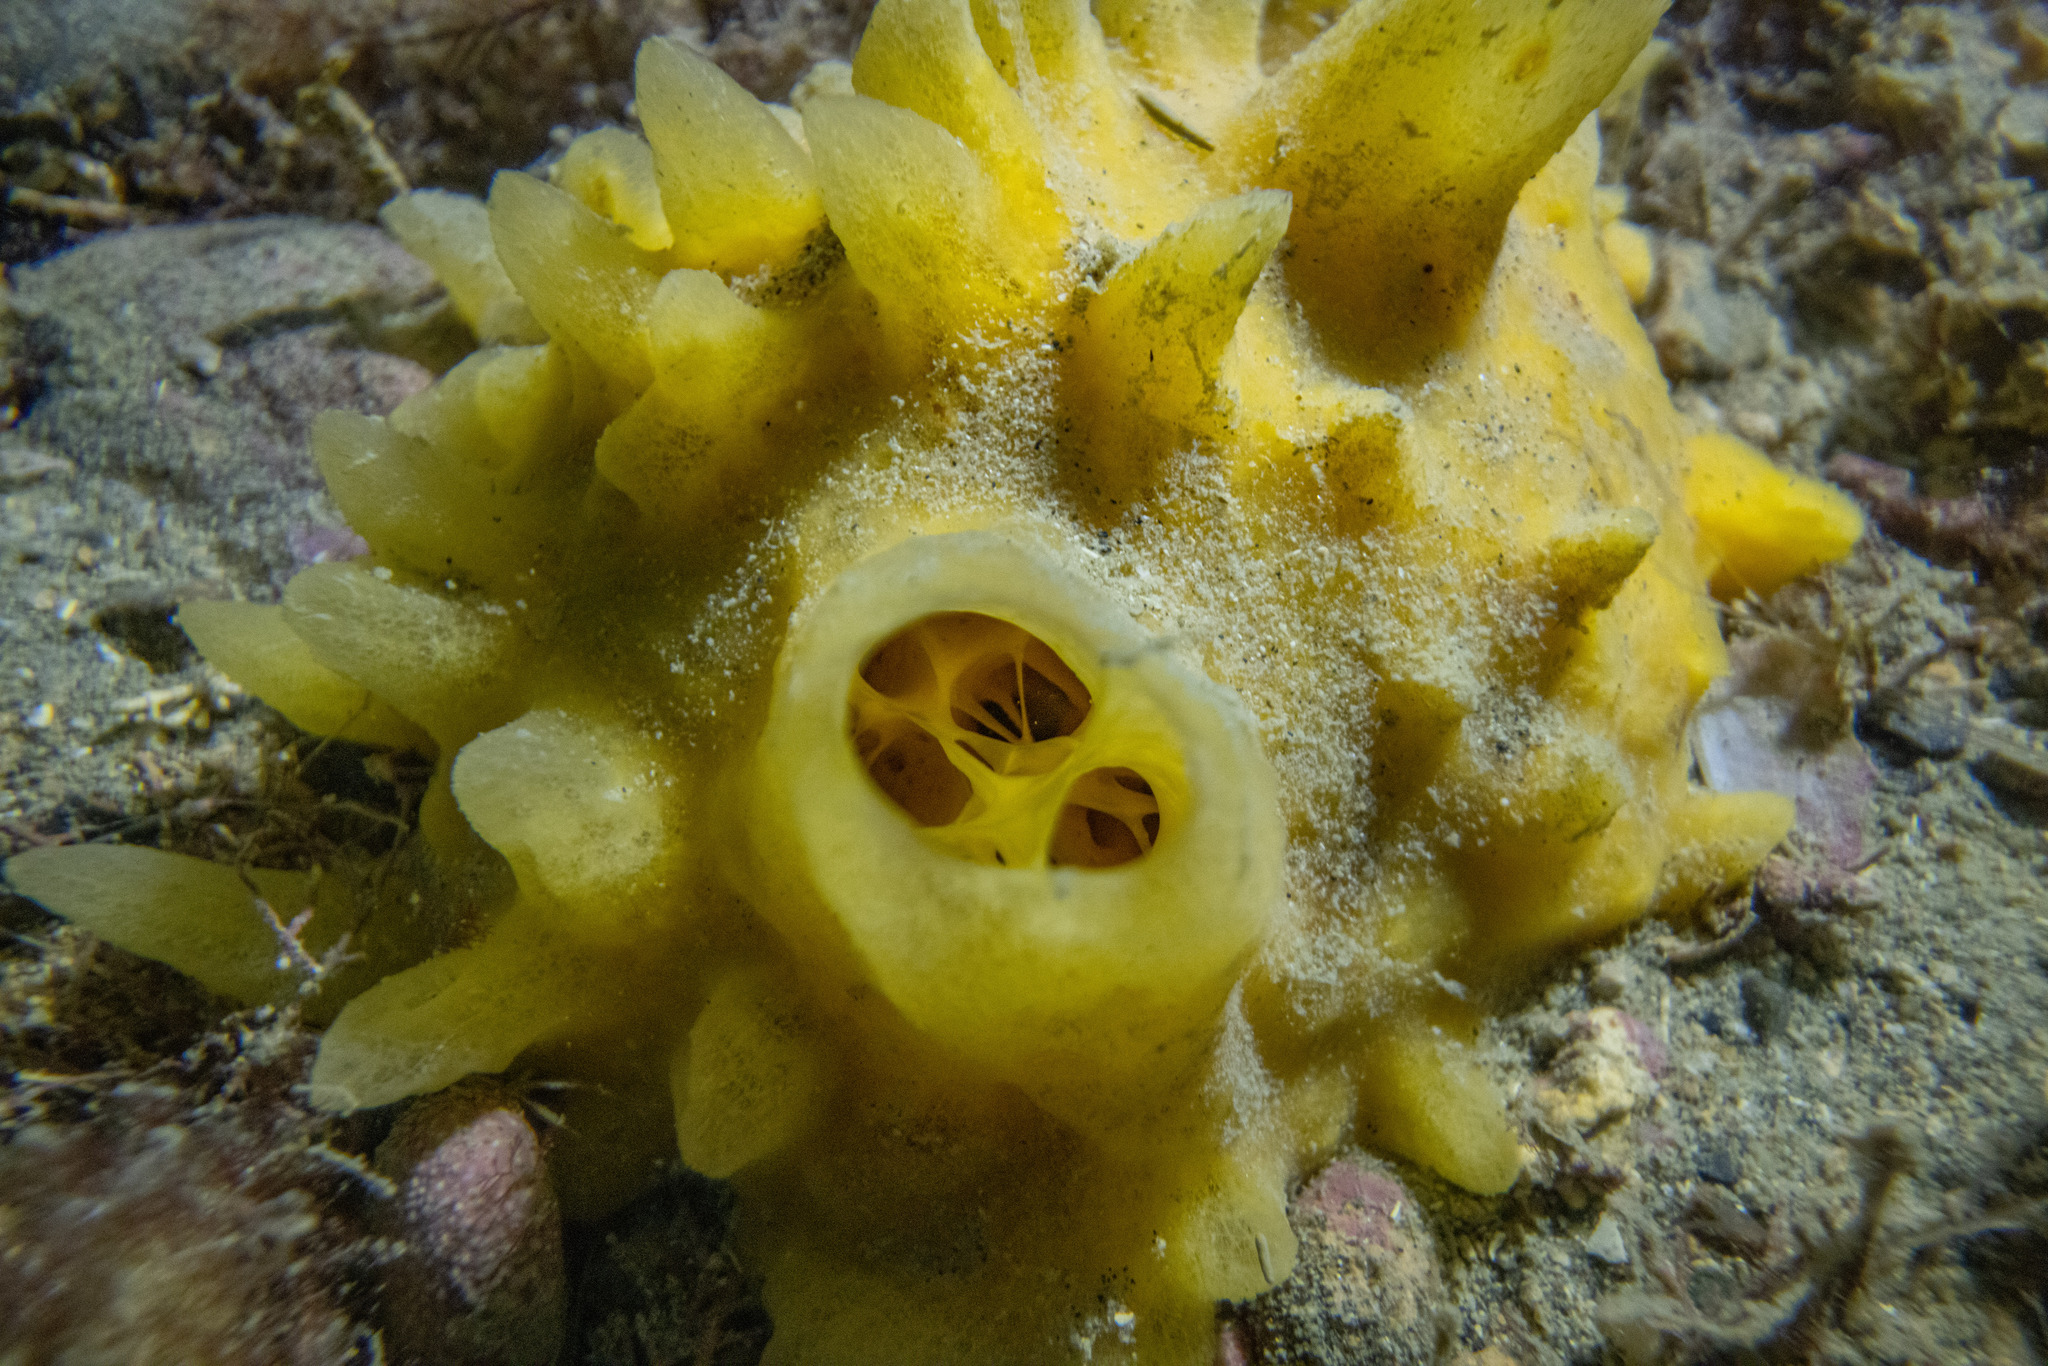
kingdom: Animalia
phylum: Porifera
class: Demospongiae
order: Polymastiida
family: Polymastiidae
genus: Polymastia
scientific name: Polymastia crocea
